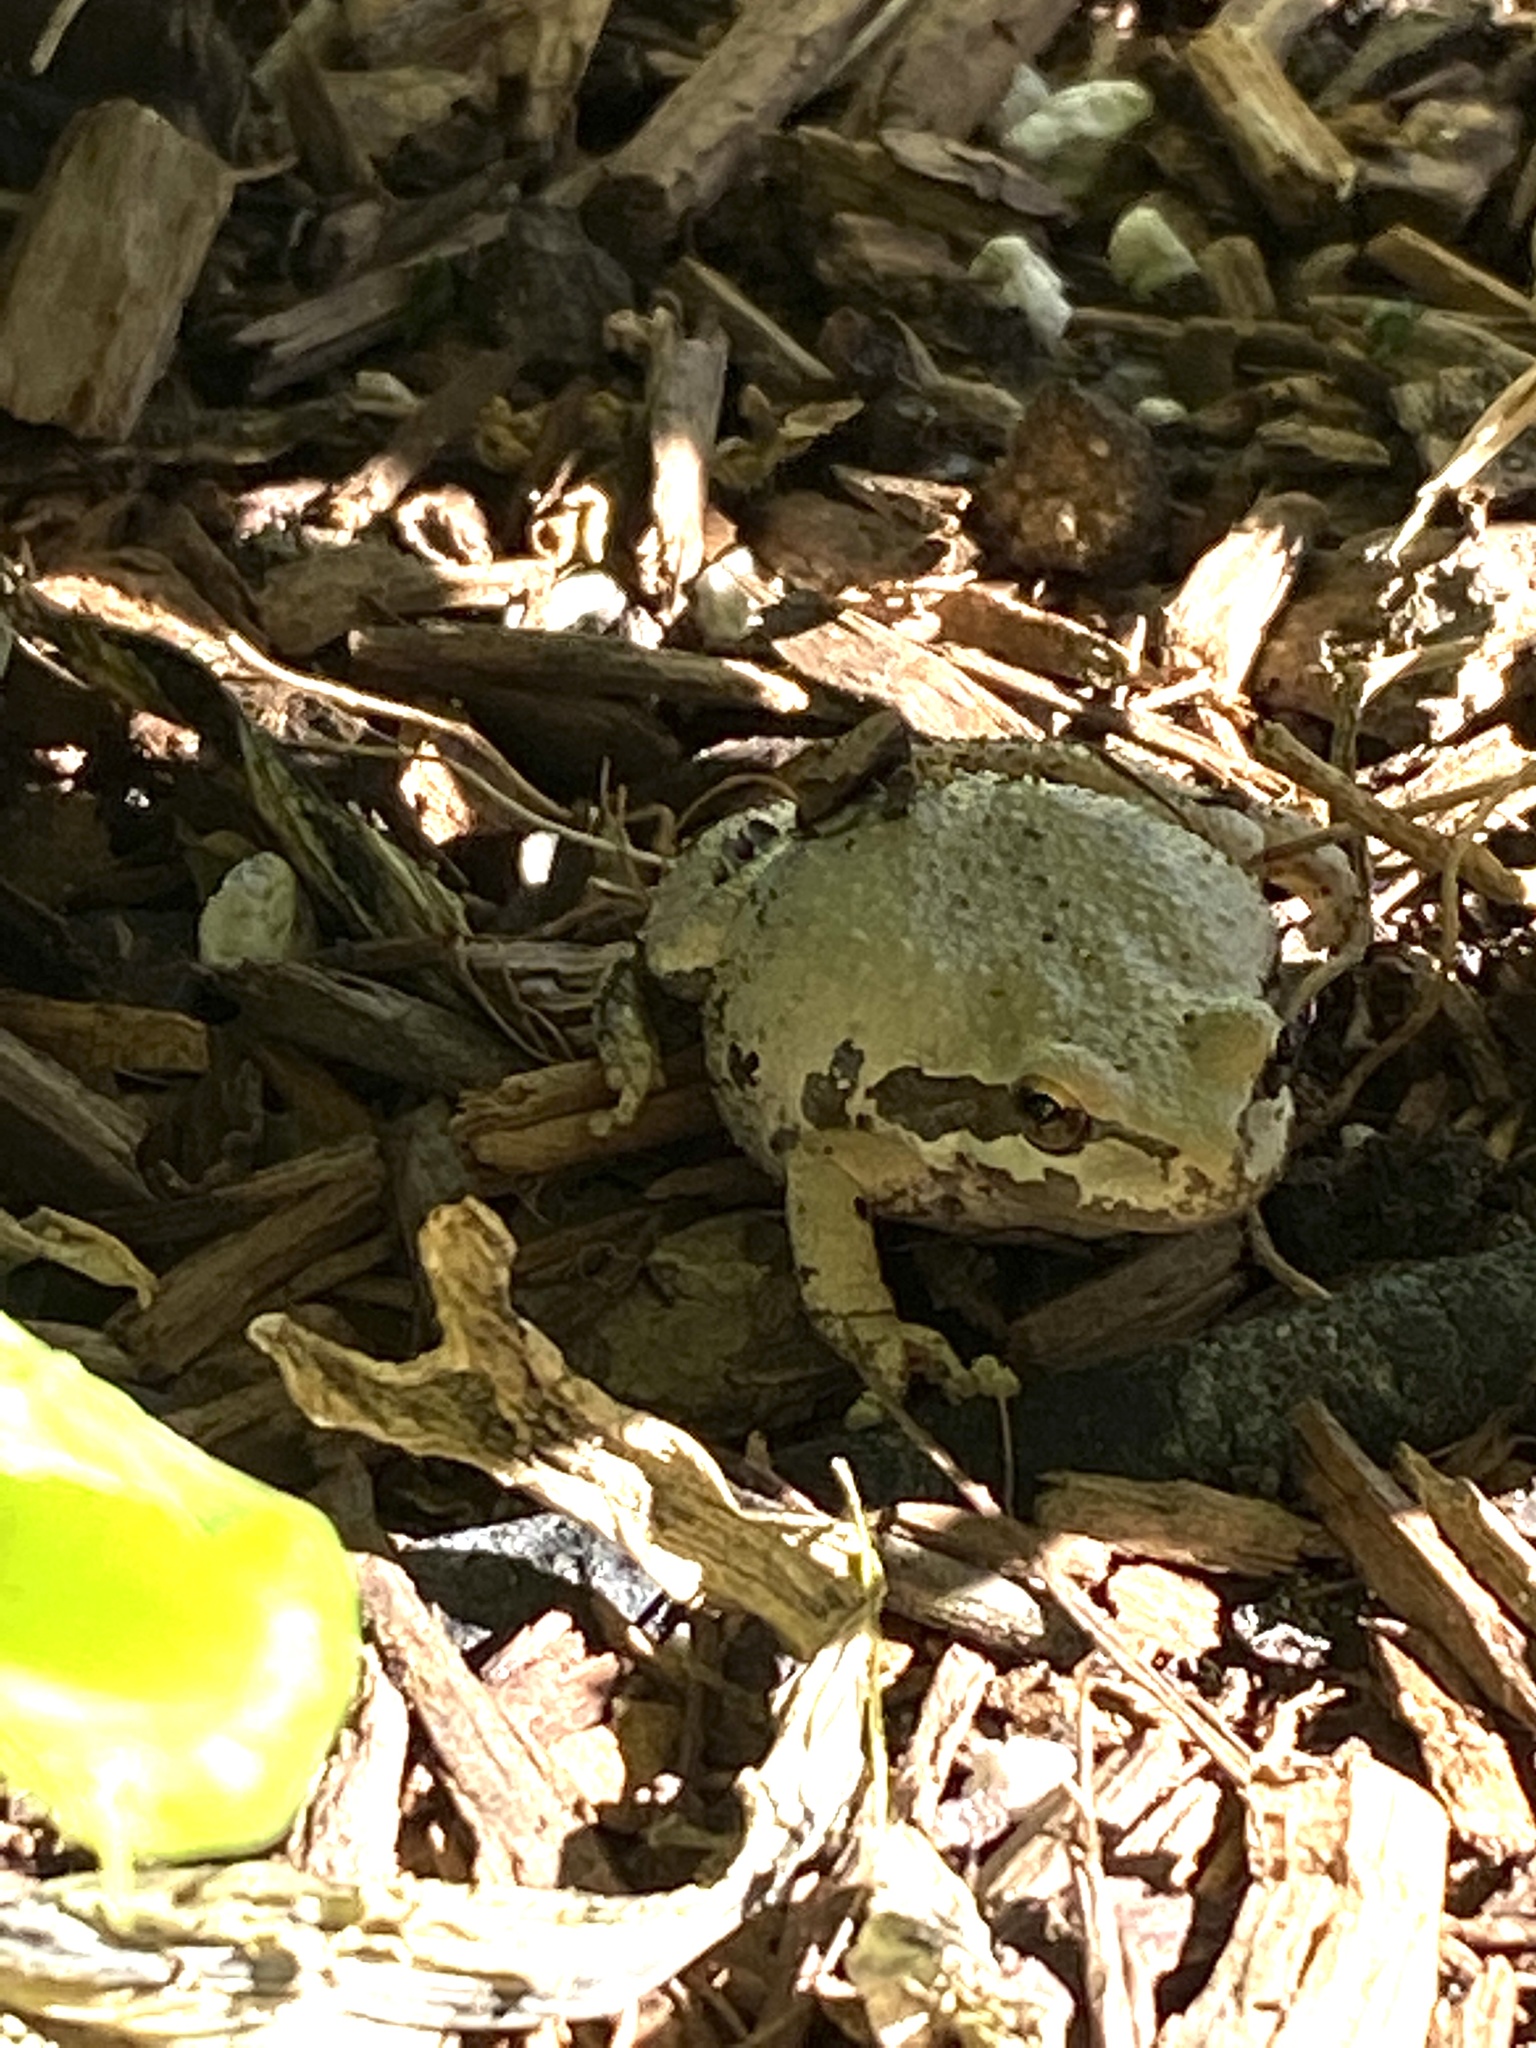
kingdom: Animalia
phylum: Chordata
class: Amphibia
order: Anura
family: Hylidae
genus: Pseudacris
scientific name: Pseudacris
